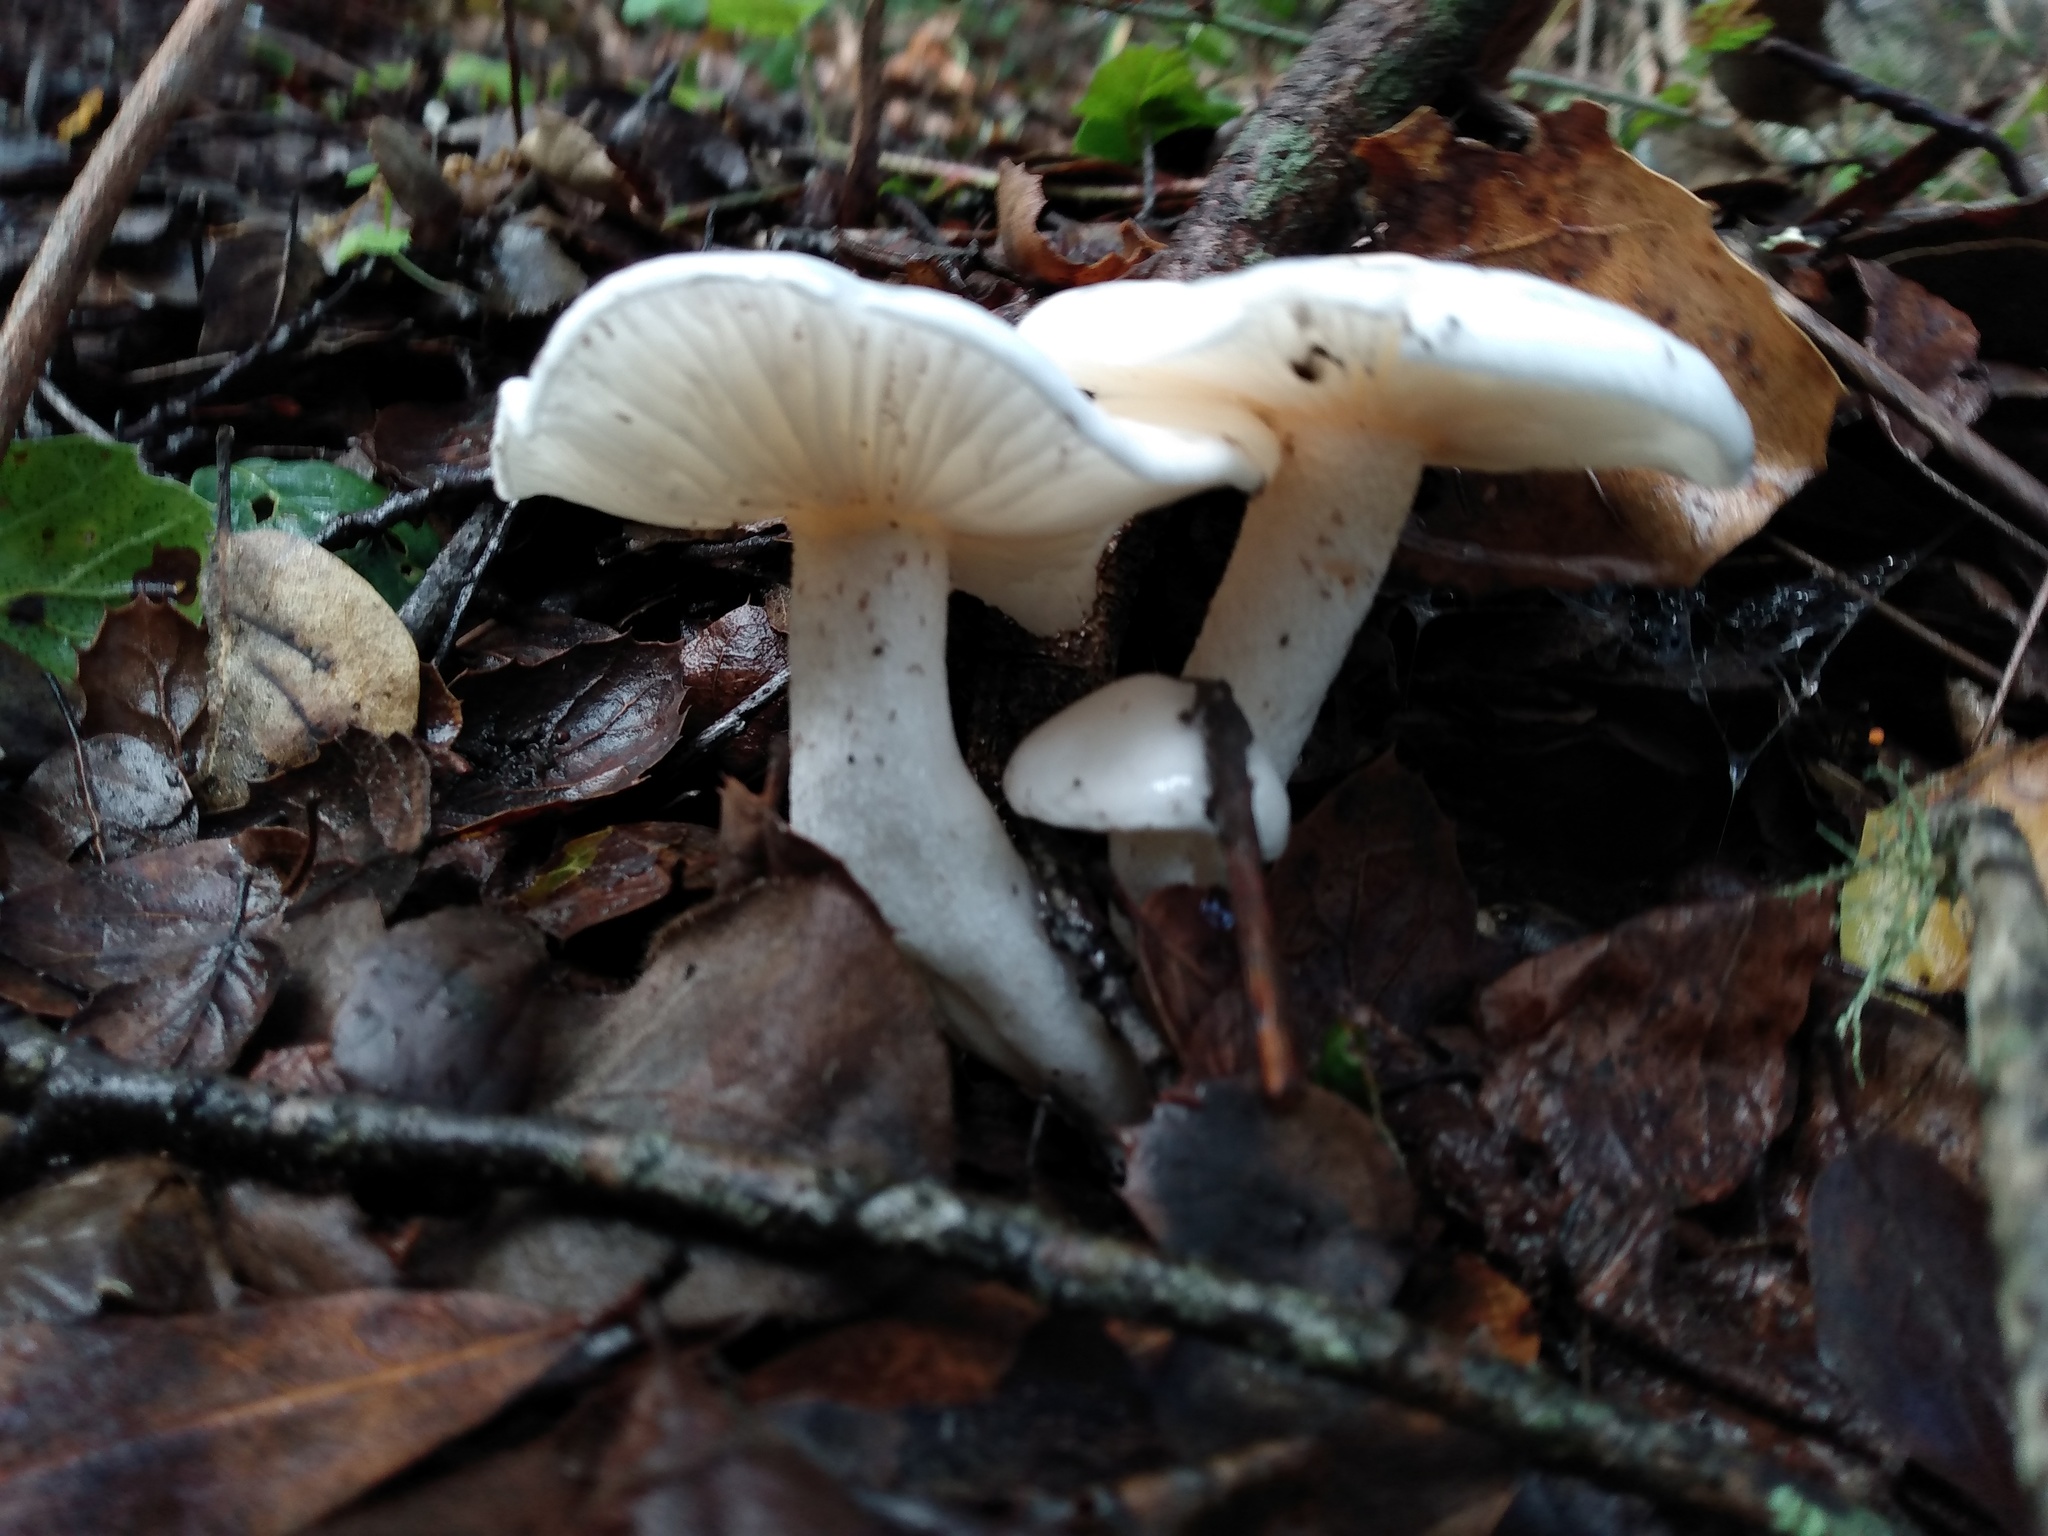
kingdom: Fungi
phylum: Basidiomycota
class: Agaricomycetes
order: Agaricales
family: Hygrophoraceae
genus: Hygrophorus
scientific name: Hygrophorus eburneus
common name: Ivory wax-cap
